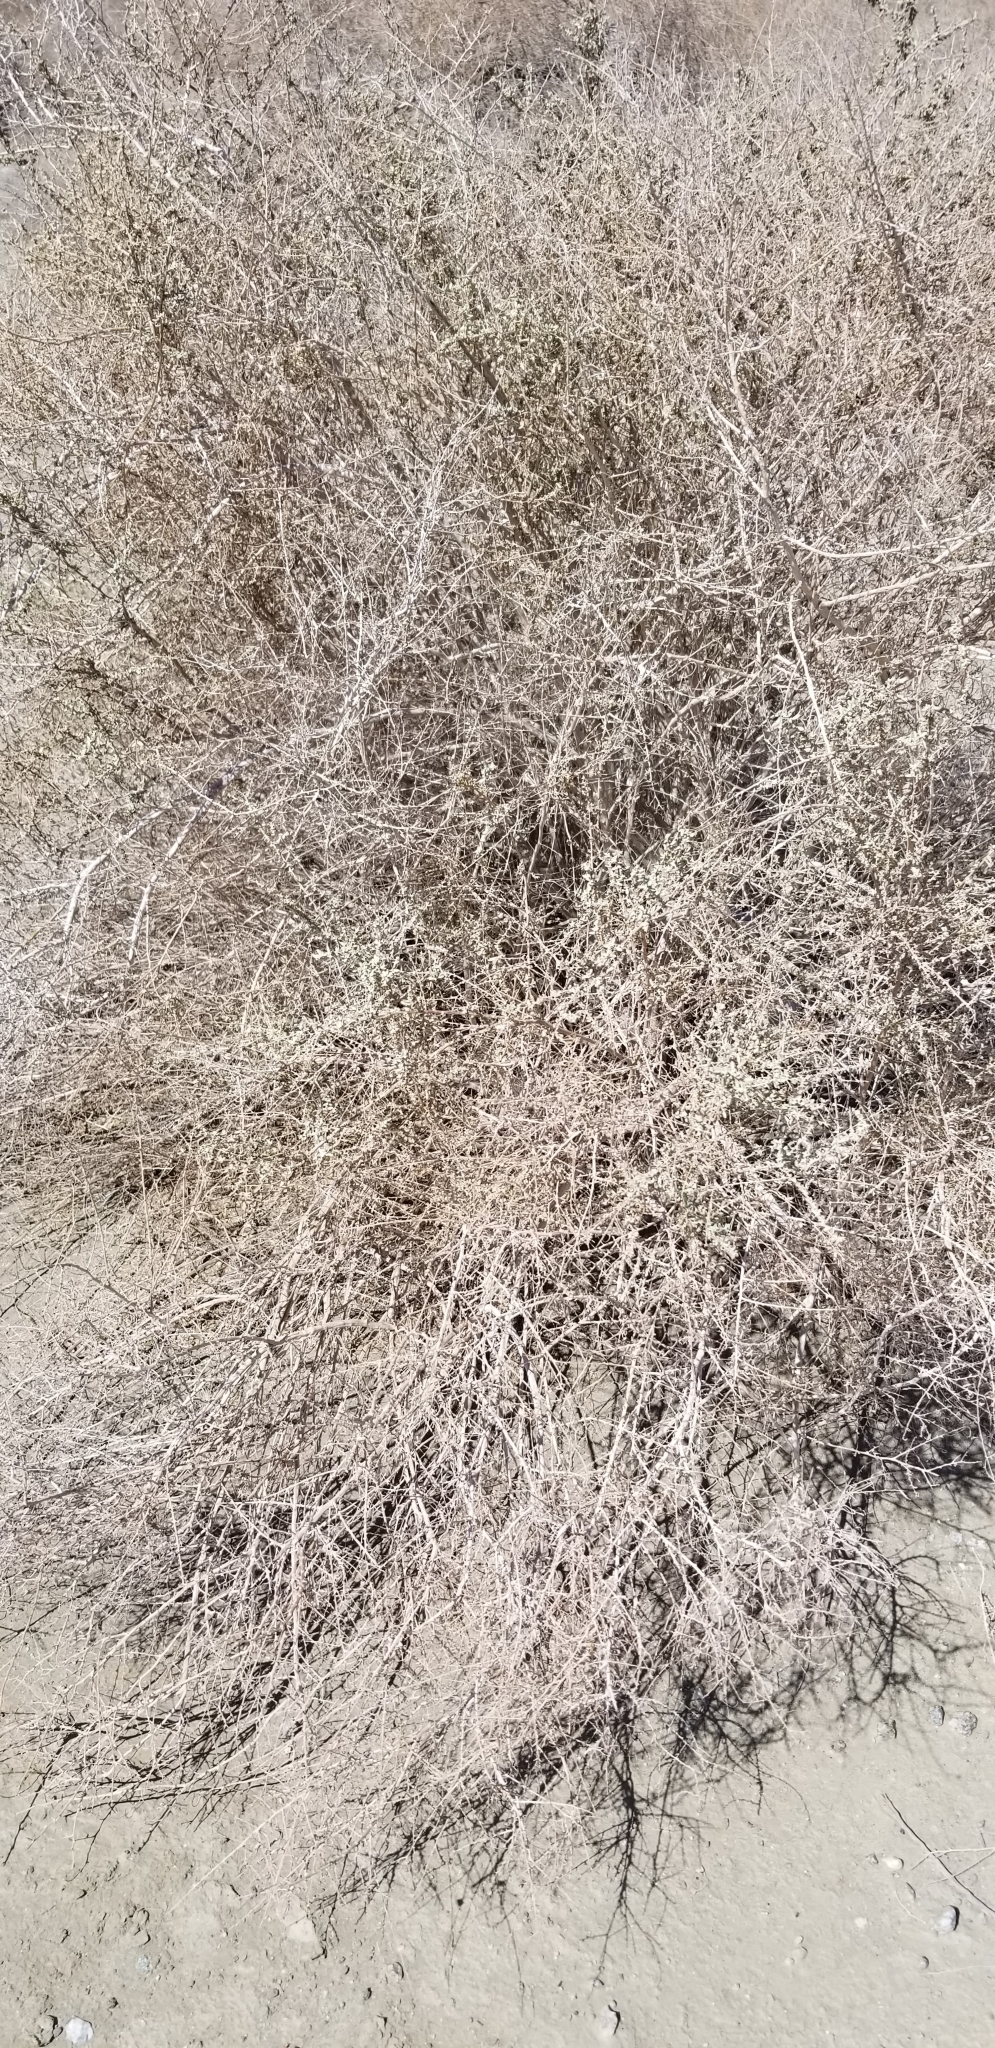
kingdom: Plantae
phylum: Tracheophyta
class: Magnoliopsida
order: Caryophyllales
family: Amaranthaceae
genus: Atriplex
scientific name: Atriplex polycarpa
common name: Desert saltbush
